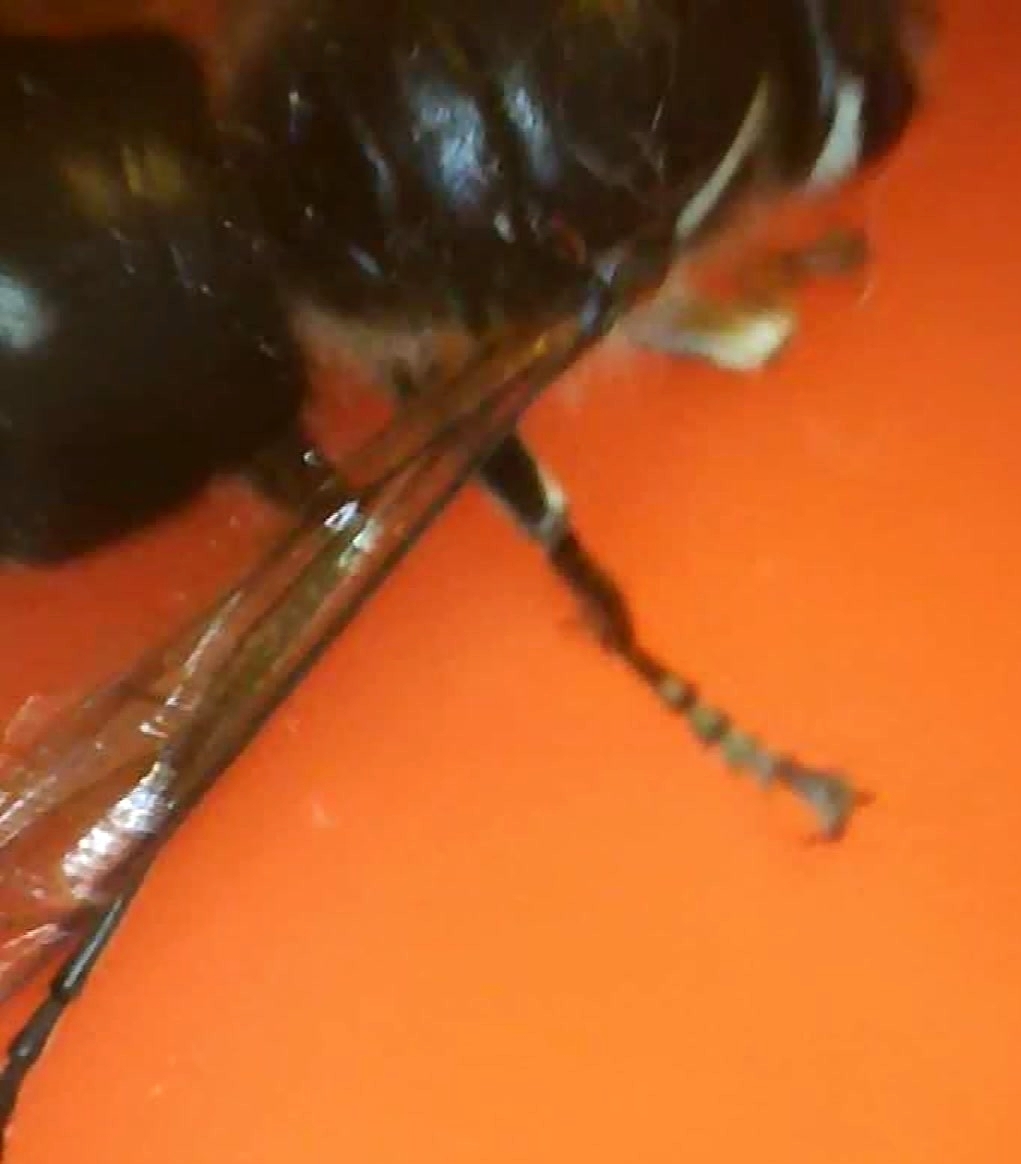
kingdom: Animalia
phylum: Arthropoda
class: Insecta
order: Hymenoptera
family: Vespidae
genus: Dolichovespula
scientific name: Dolichovespula maculata
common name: Bald-faced hornet
